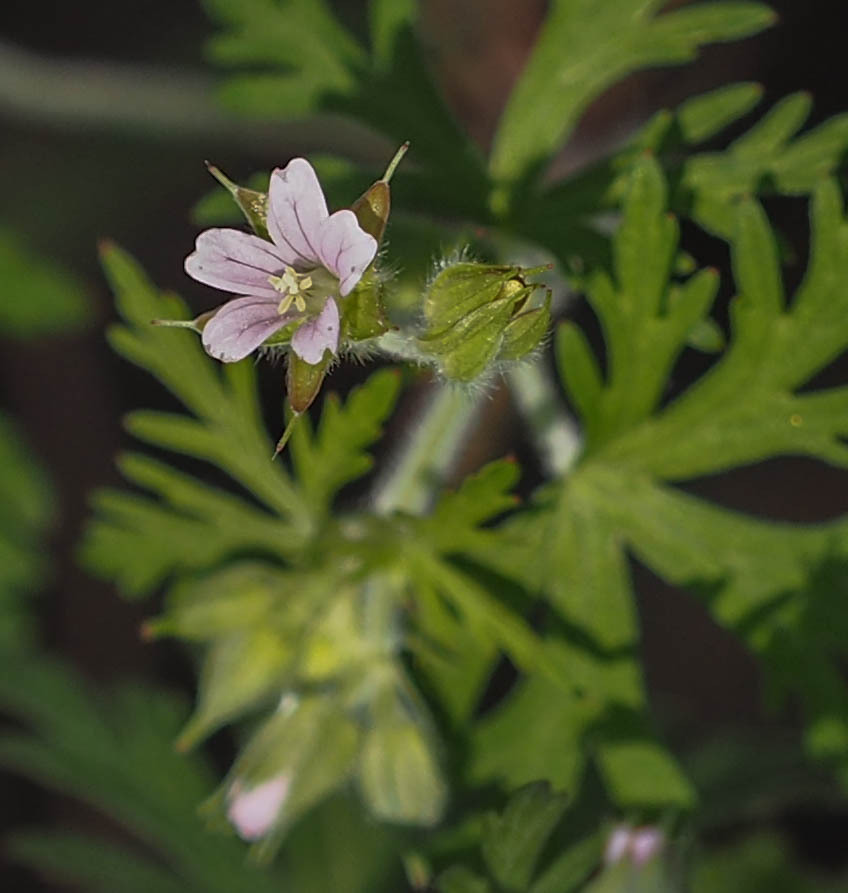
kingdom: Plantae
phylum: Tracheophyta
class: Magnoliopsida
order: Geraniales
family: Geraniaceae
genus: Geranium
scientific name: Geranium carolinianum
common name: Carolina crane's-bill
